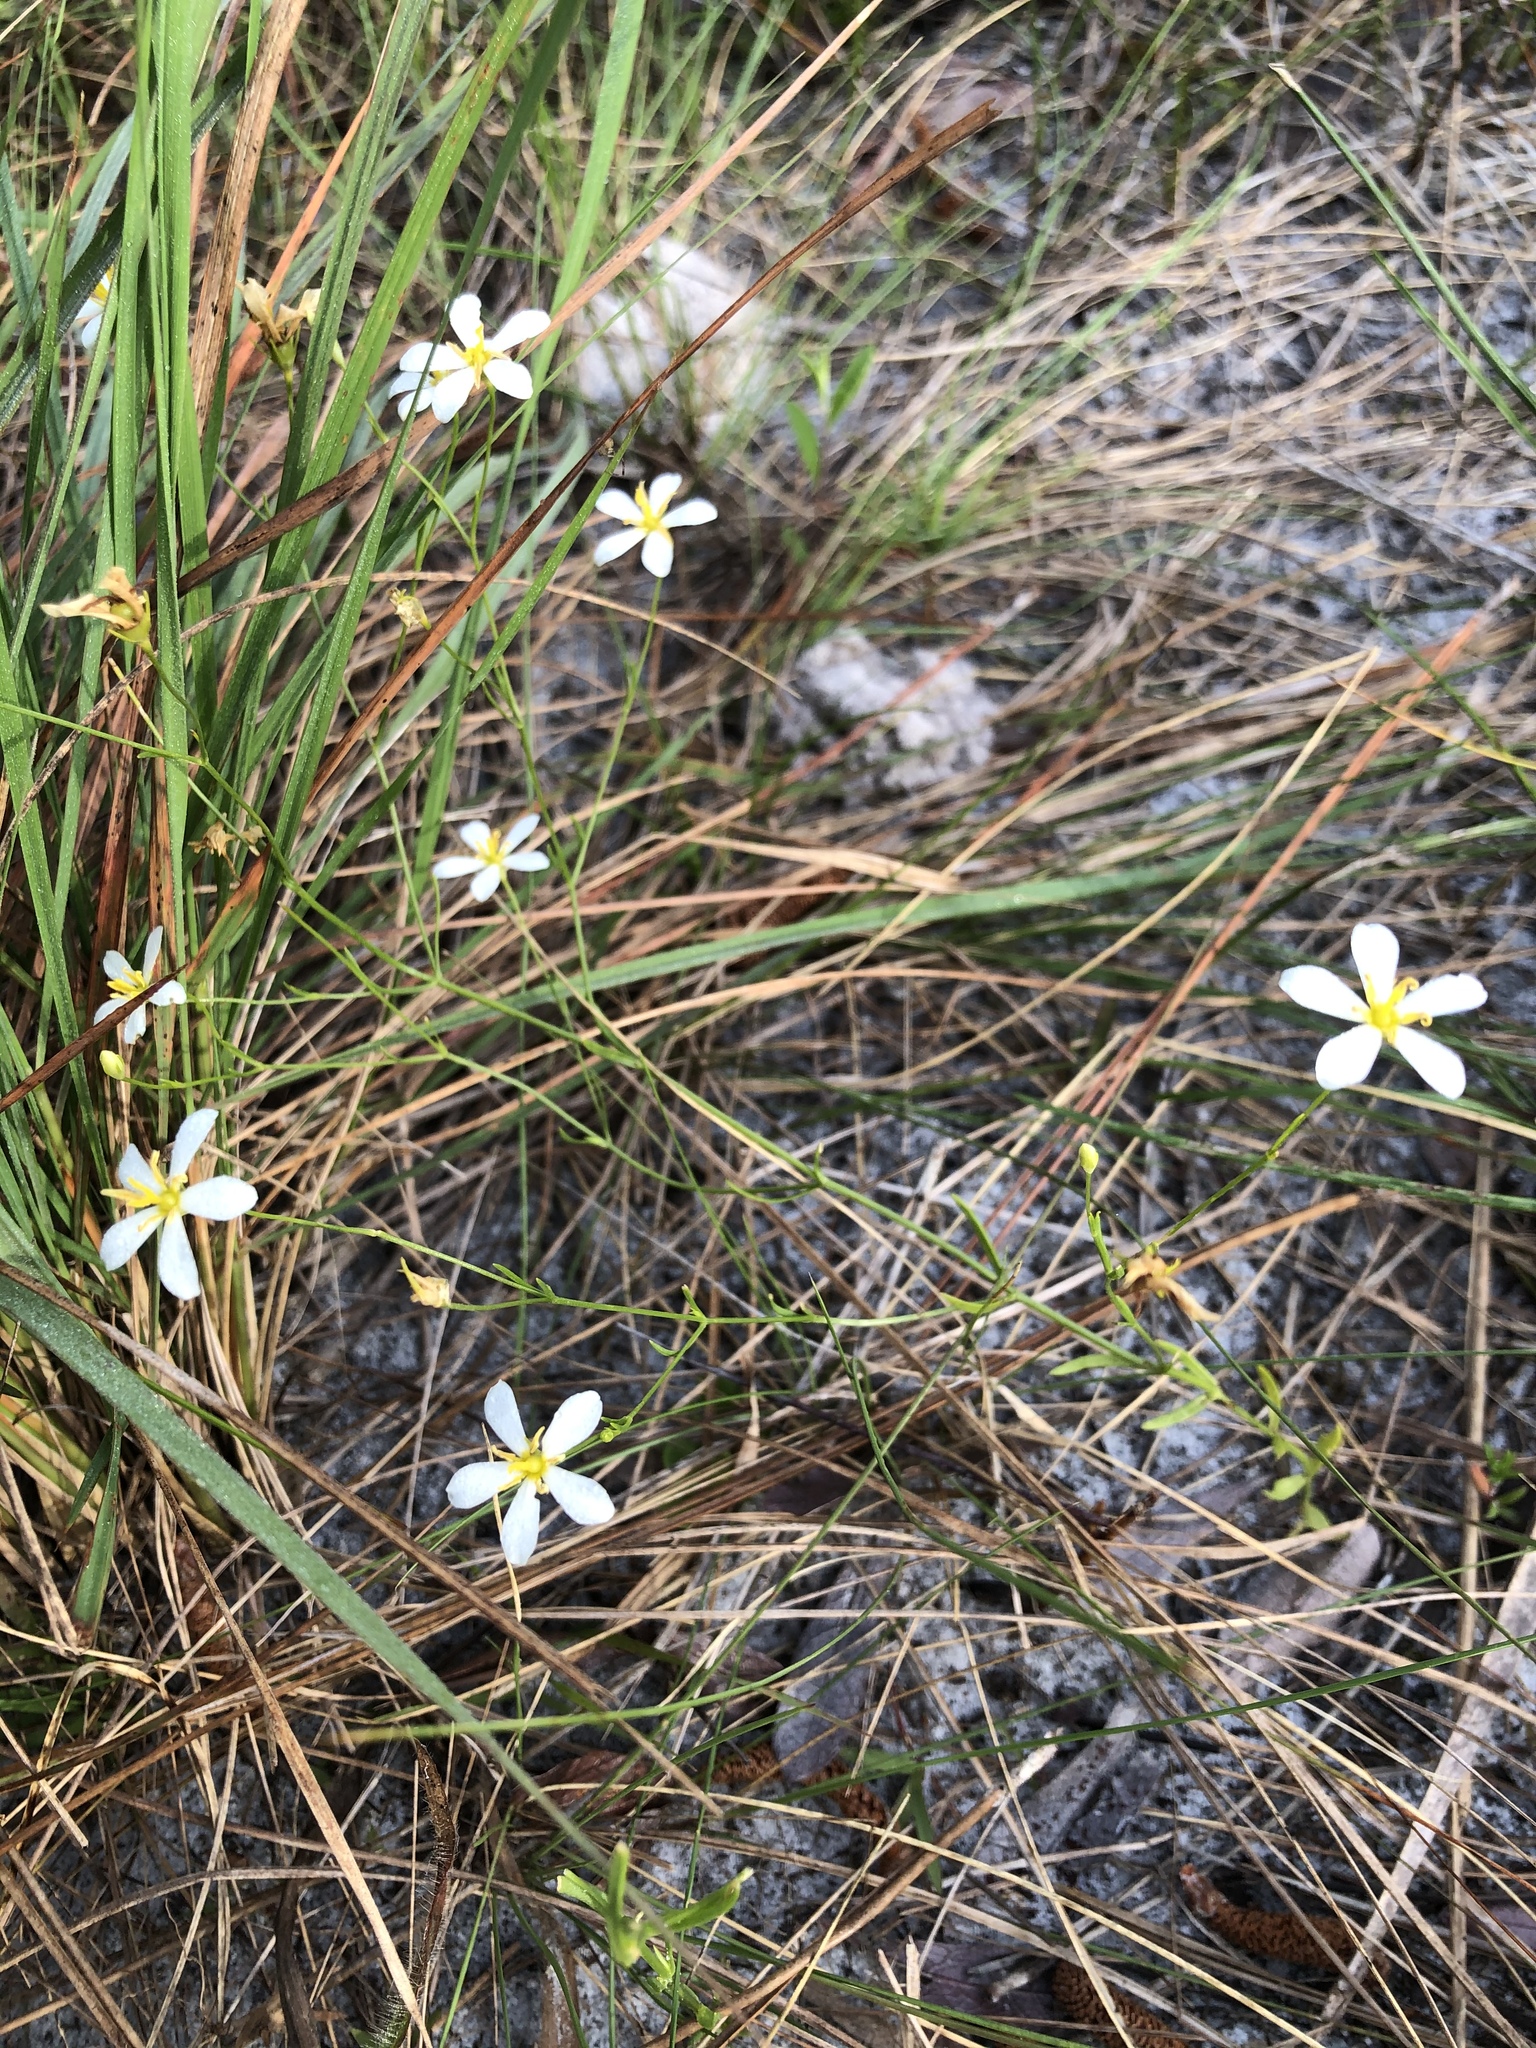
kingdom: Plantae
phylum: Tracheophyta
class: Magnoliopsida
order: Gentianales
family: Gentianaceae
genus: Sabatia
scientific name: Sabatia brevifolia
